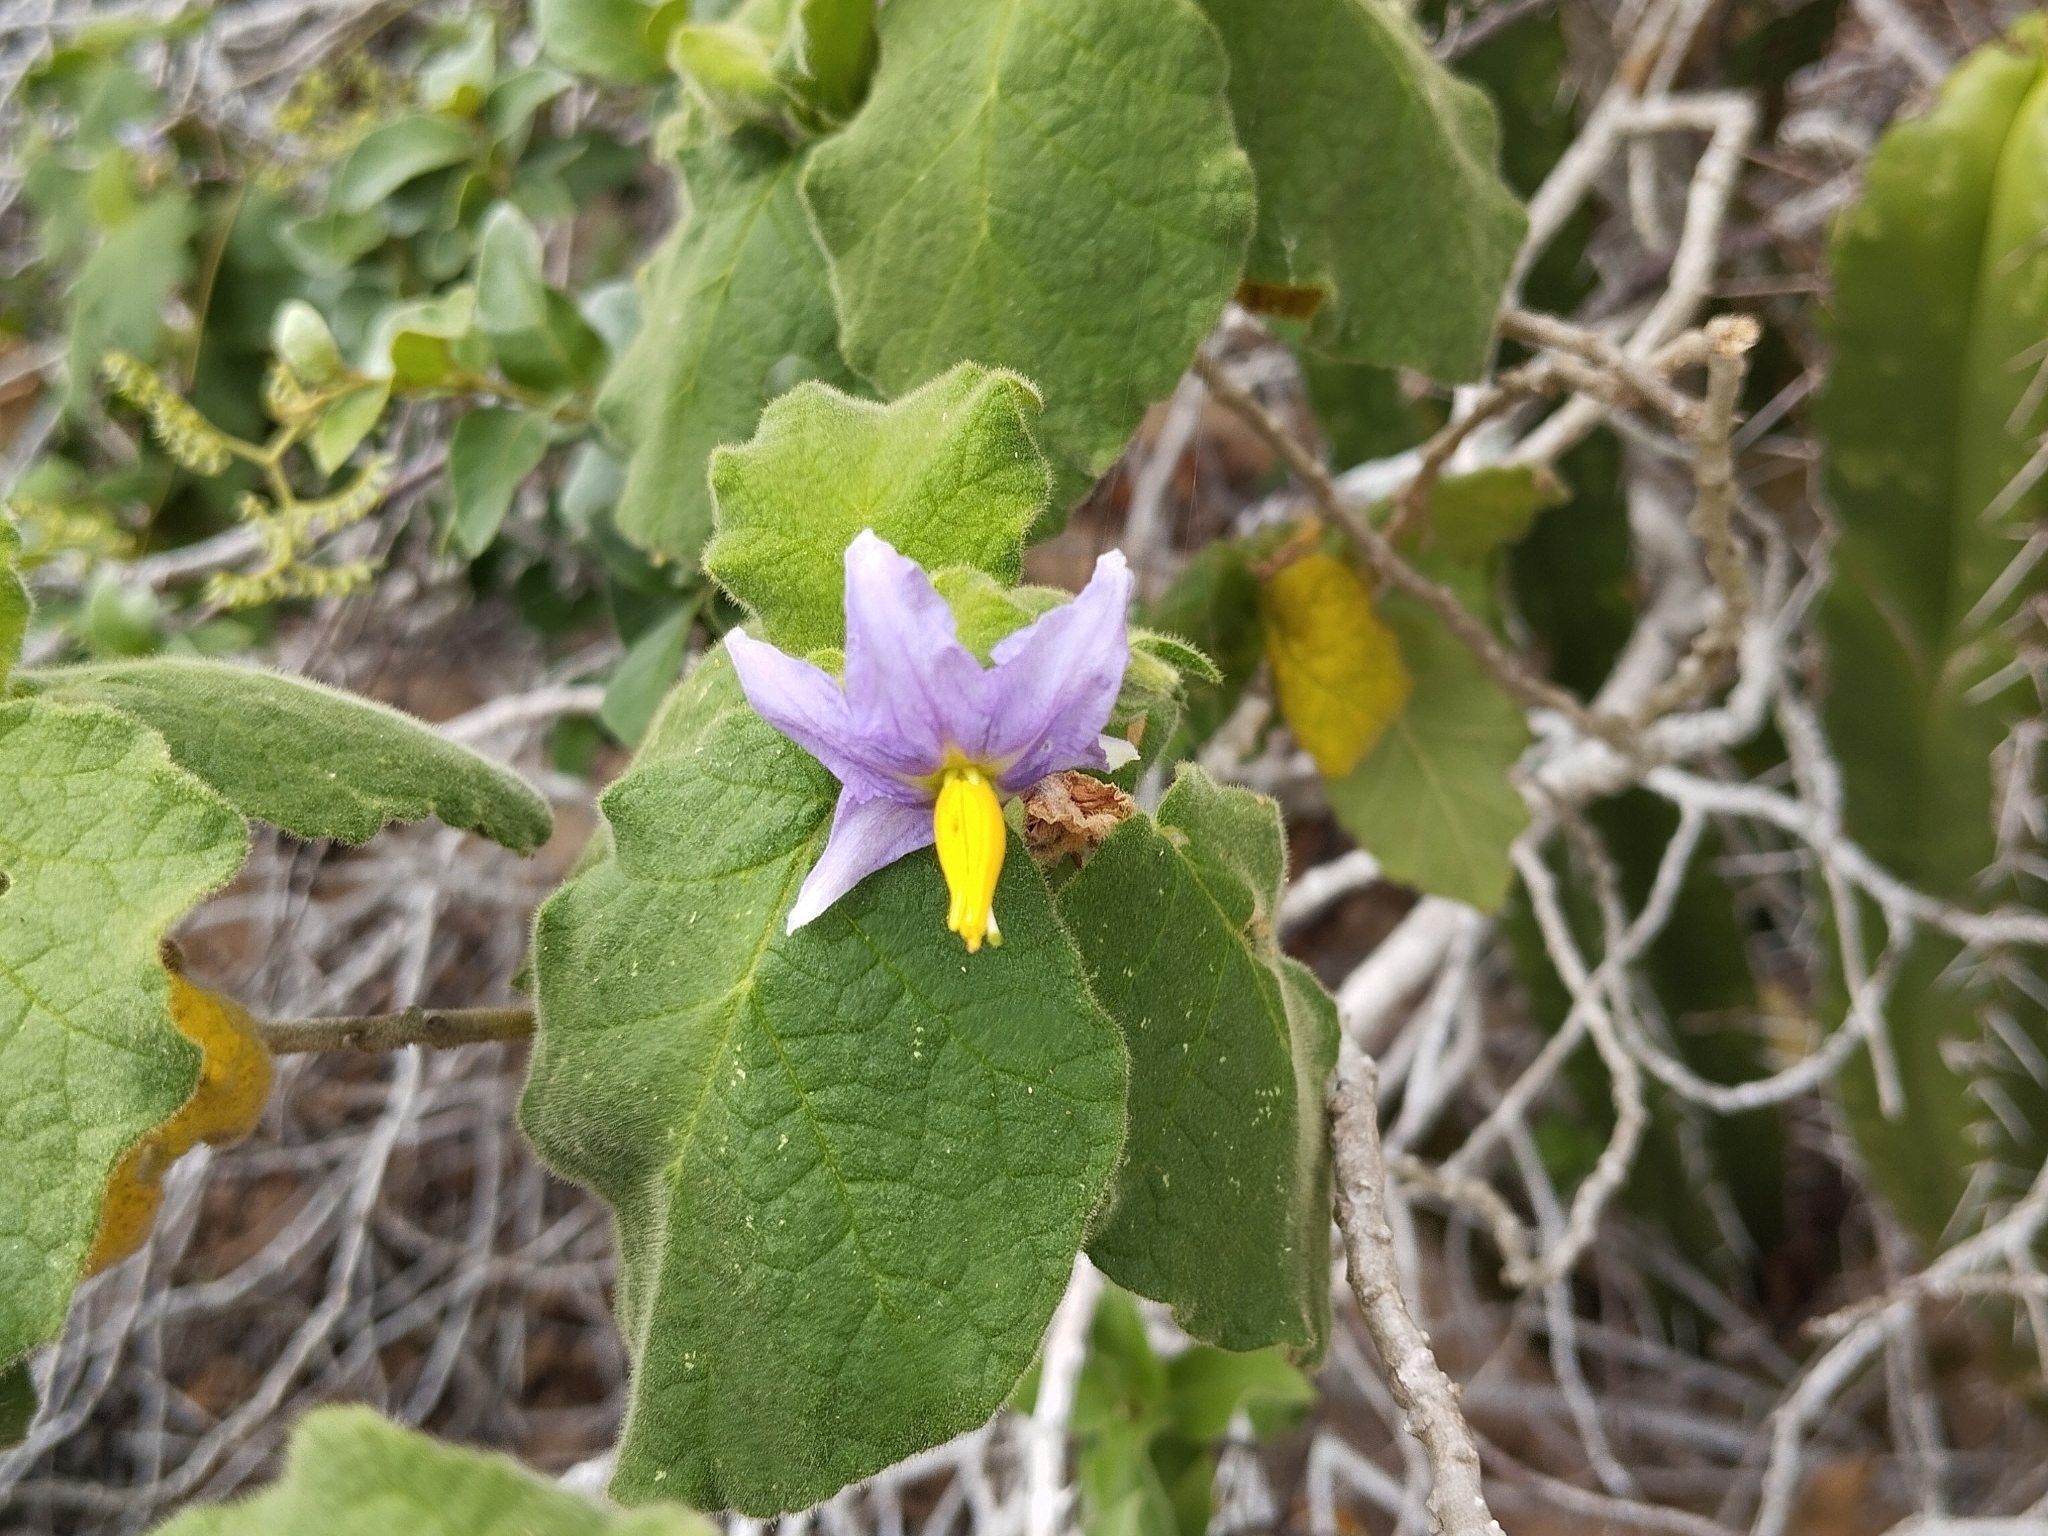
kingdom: Plantae
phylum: Tracheophyta
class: Magnoliopsida
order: Solanales
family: Solanaceae
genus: Solanum
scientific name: Solanum cordifolium
